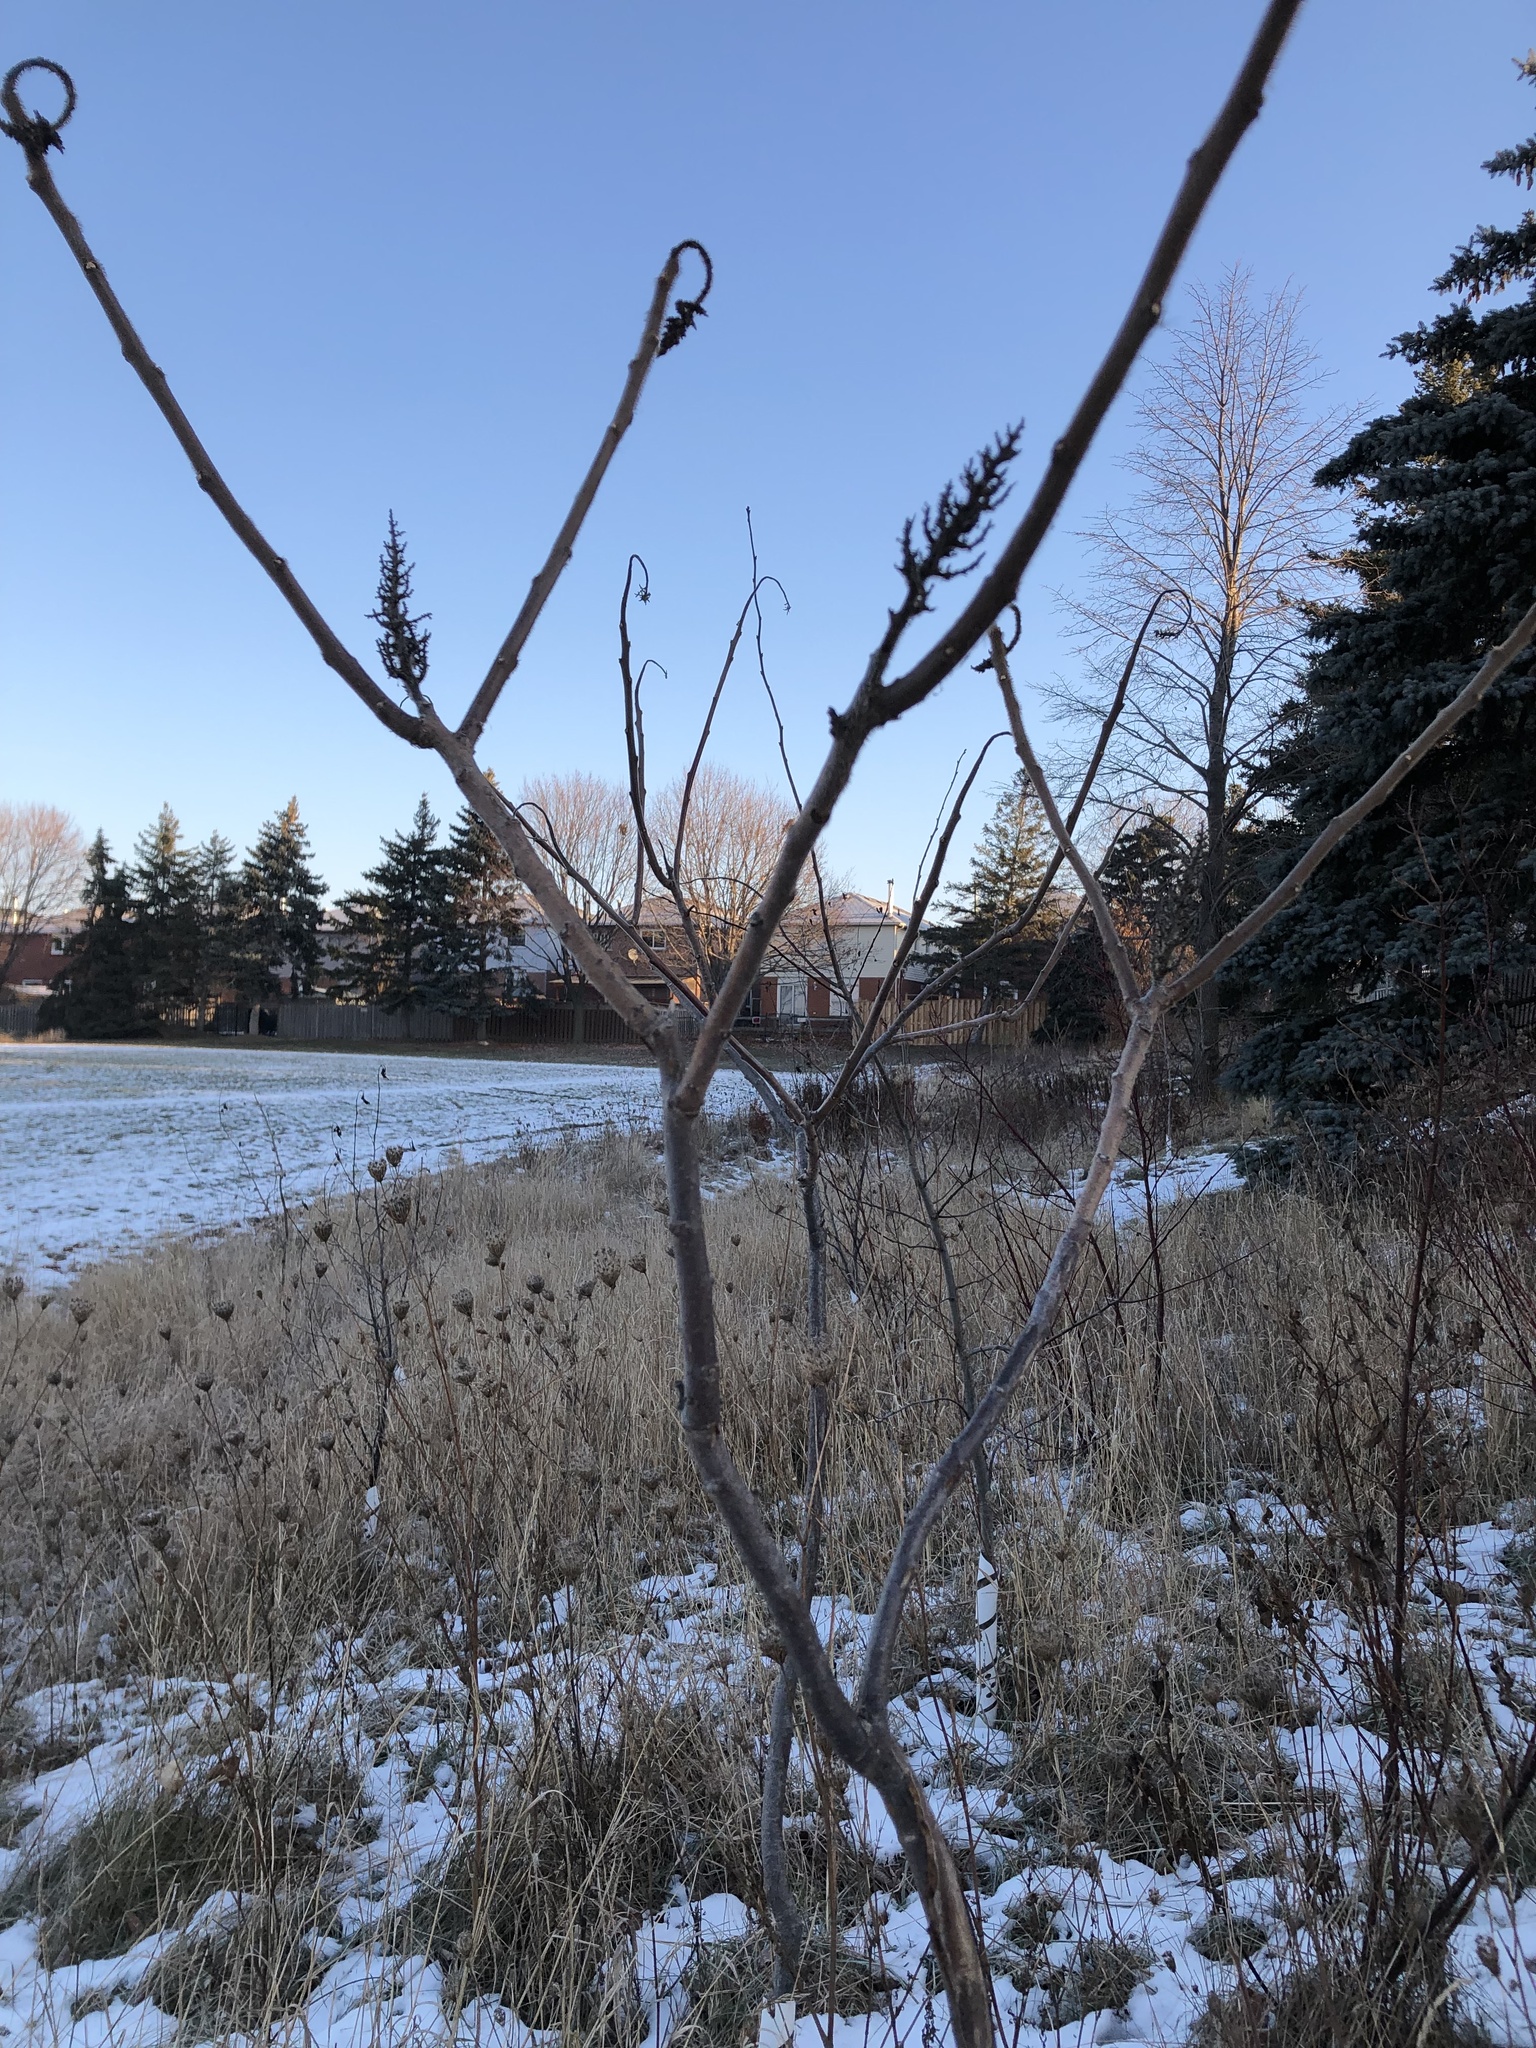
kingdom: Plantae
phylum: Tracheophyta
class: Magnoliopsida
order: Sapindales
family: Anacardiaceae
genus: Rhus
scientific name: Rhus typhina
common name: Staghorn sumac
